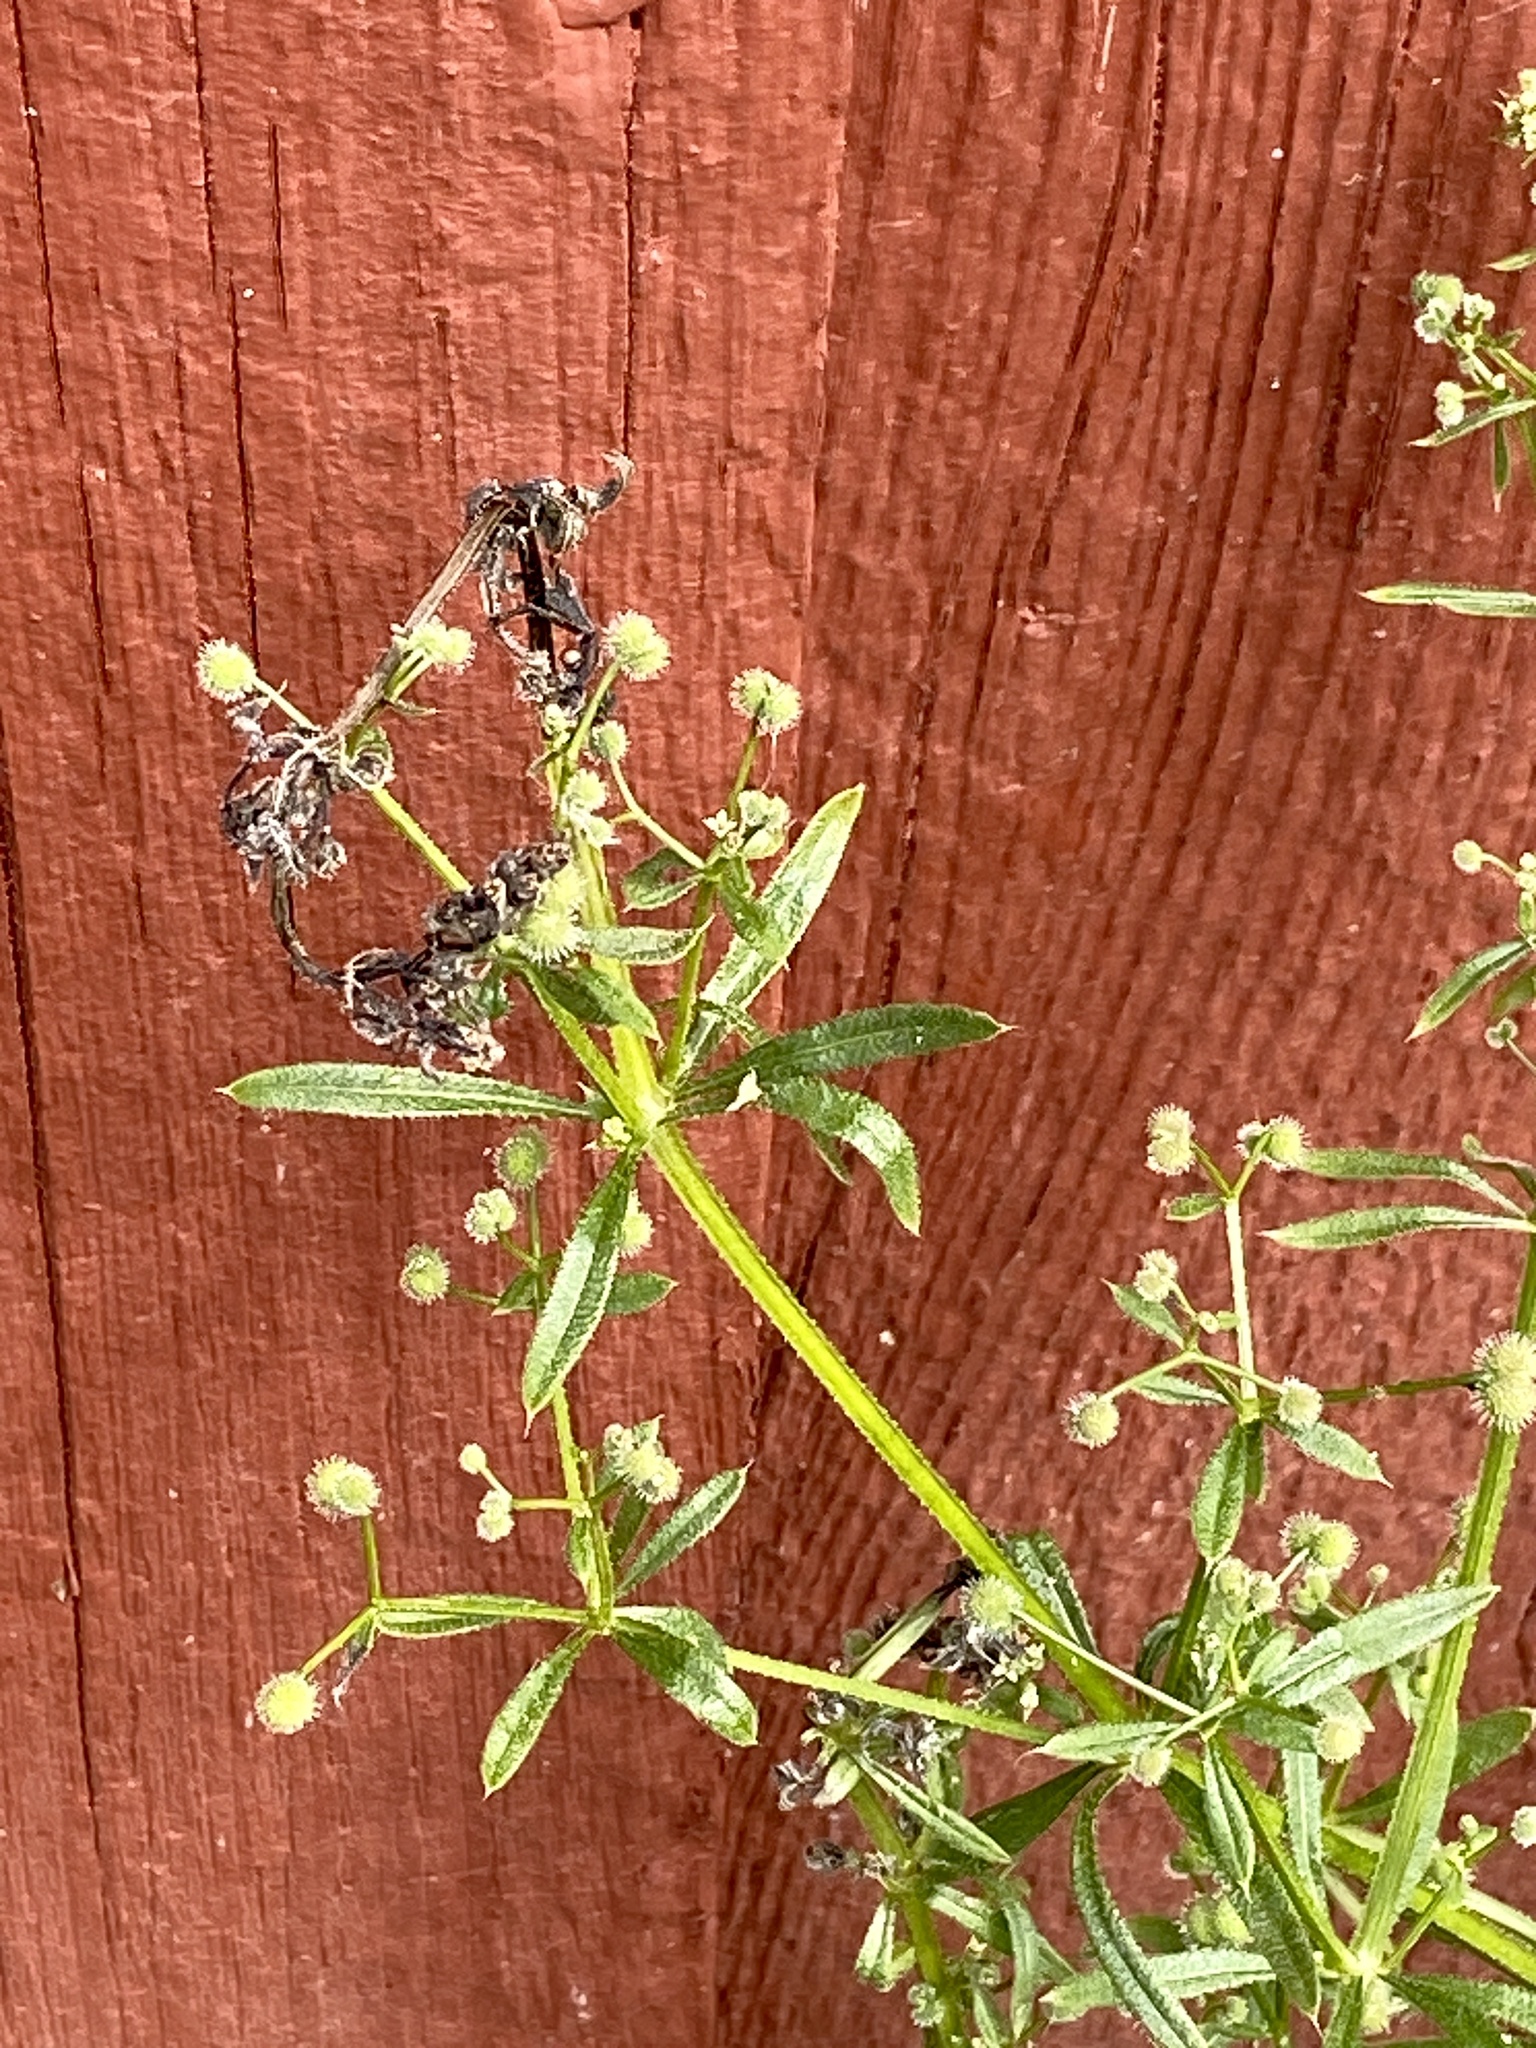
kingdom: Plantae
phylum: Tracheophyta
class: Magnoliopsida
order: Gentianales
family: Rubiaceae
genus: Galium
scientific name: Galium aparine
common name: Cleavers
